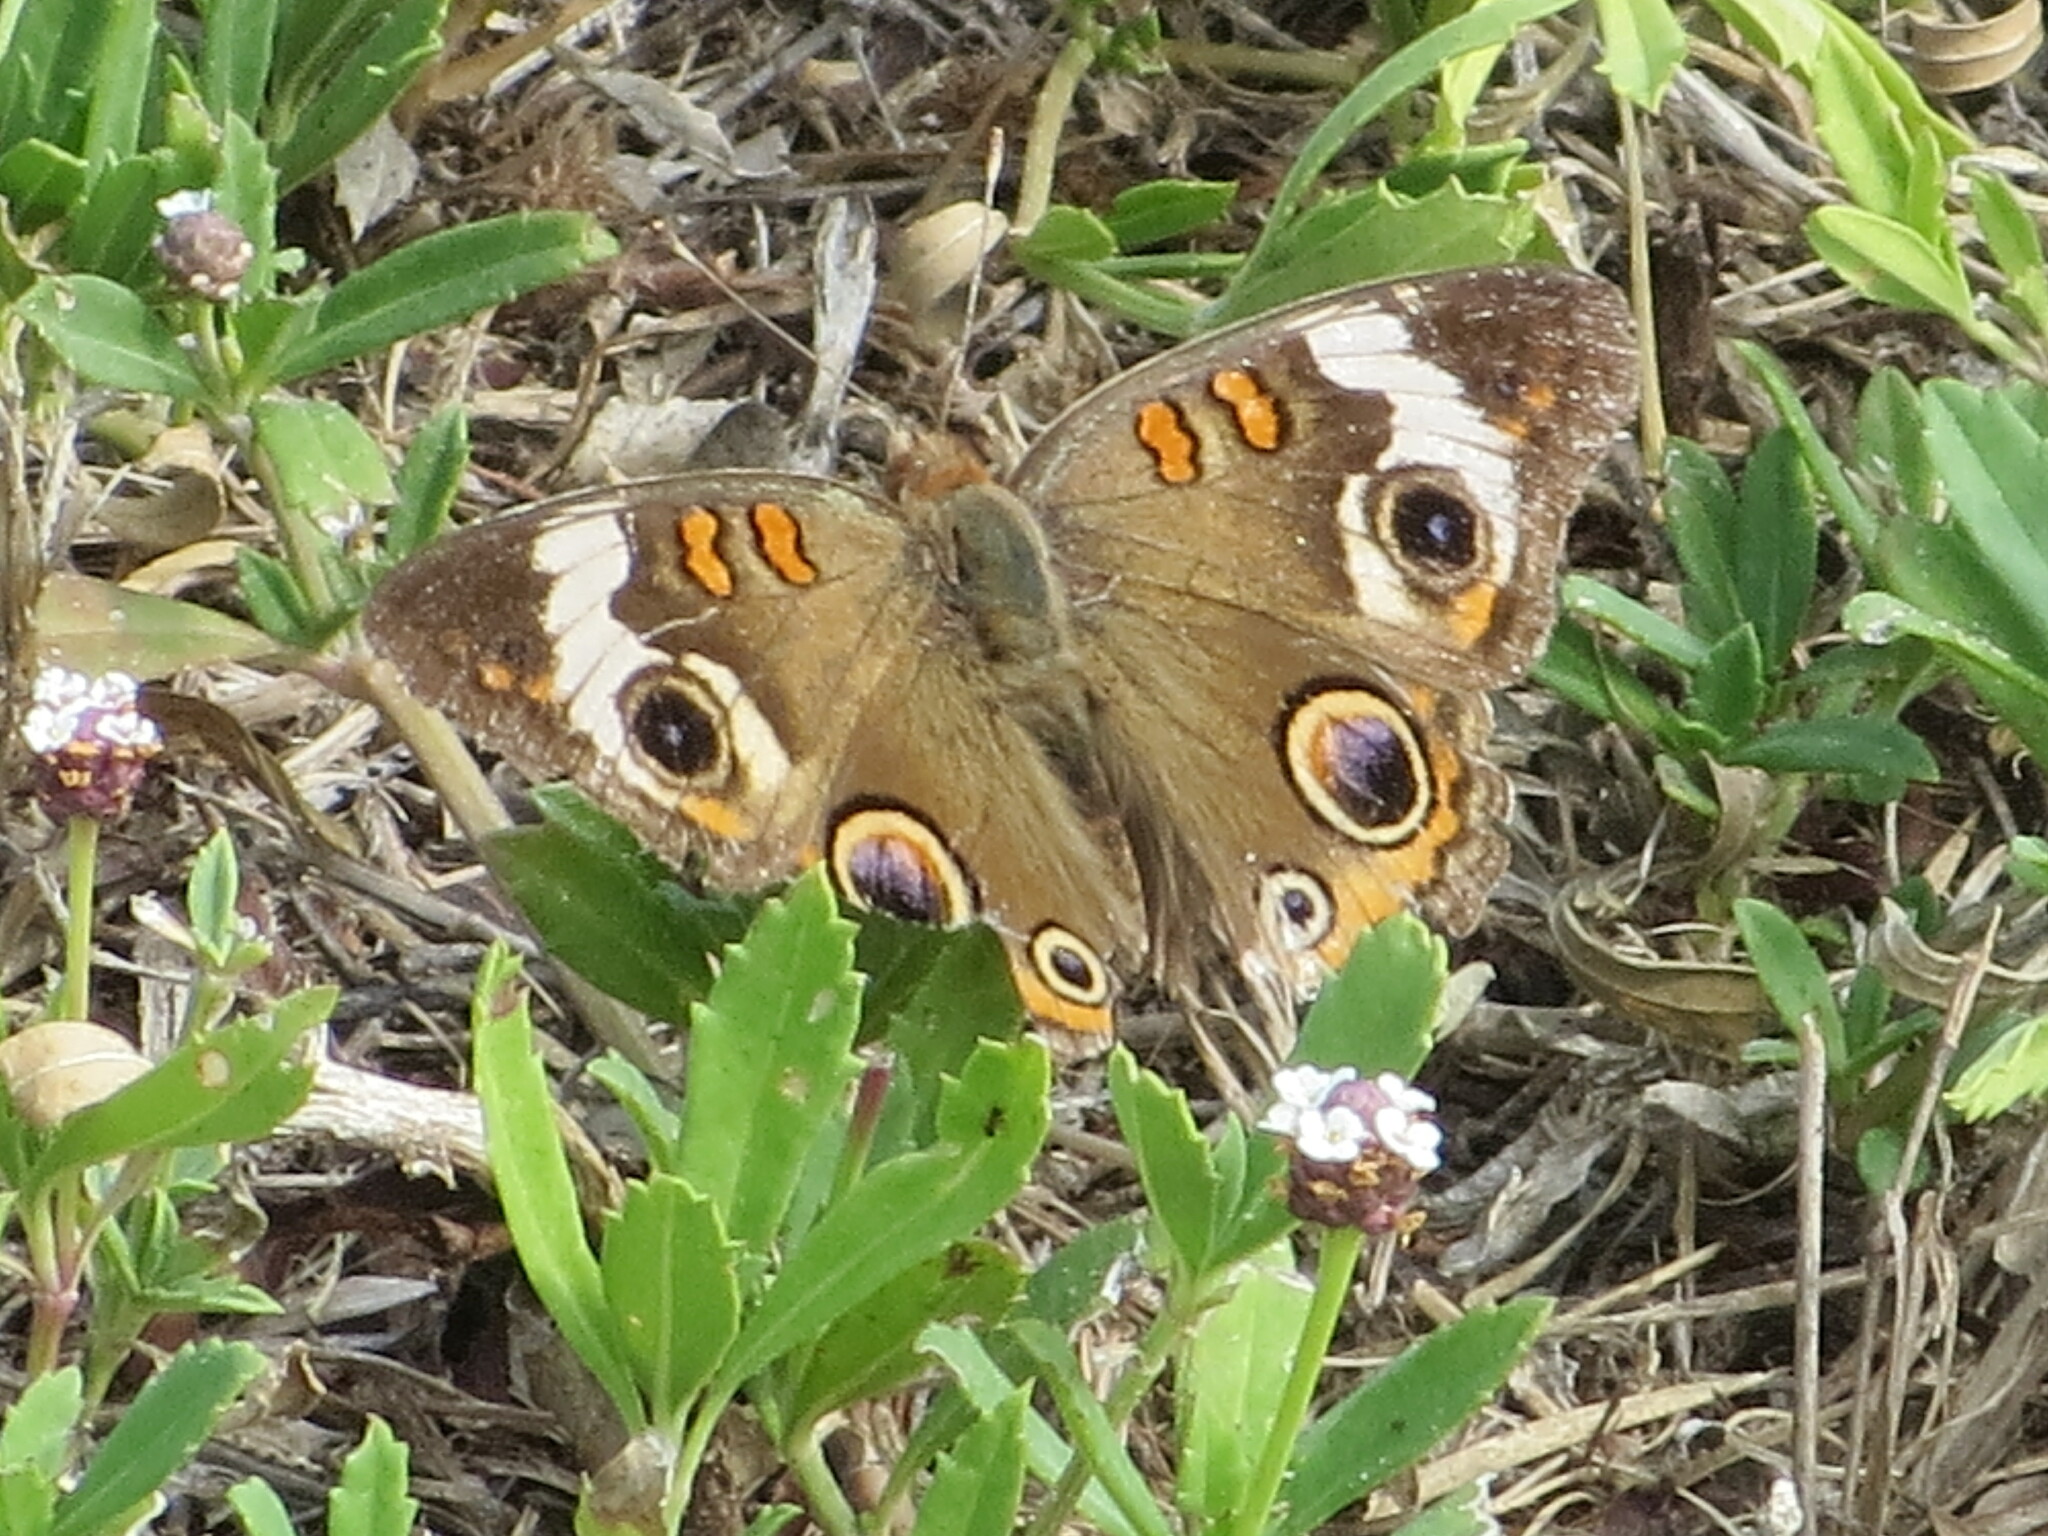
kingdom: Animalia
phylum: Arthropoda
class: Insecta
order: Lepidoptera
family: Nymphalidae
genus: Junonia
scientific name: Junonia coenia
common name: Common buckeye
